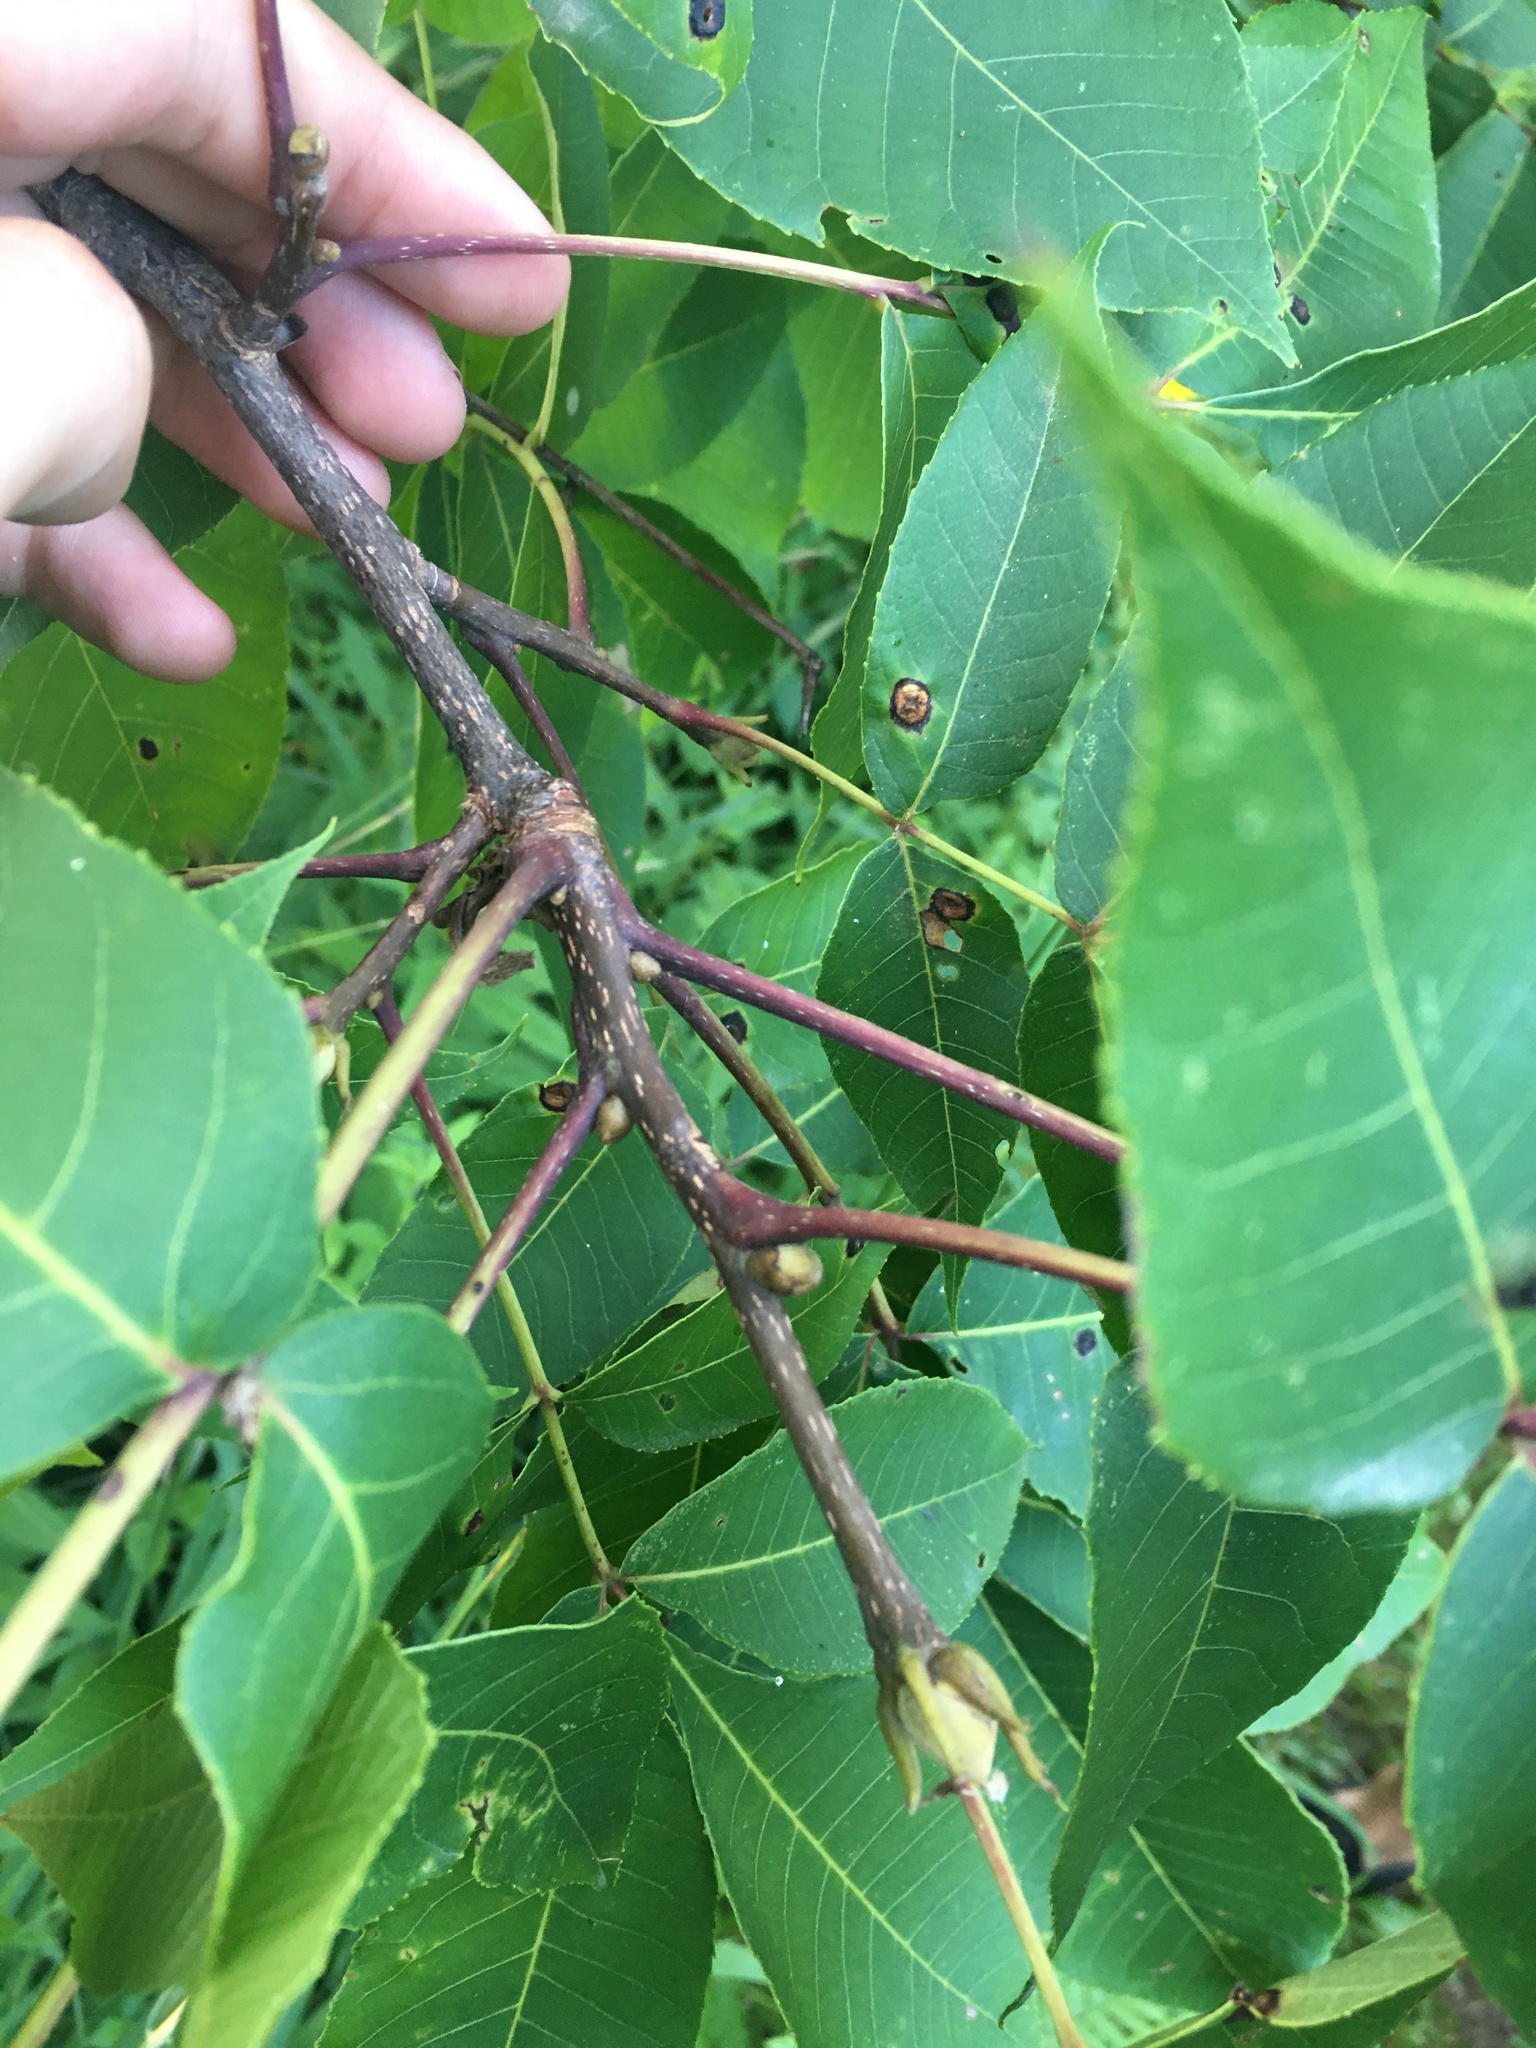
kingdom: Plantae
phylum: Tracheophyta
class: Magnoliopsida
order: Fagales
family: Juglandaceae
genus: Carya
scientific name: Carya glabra
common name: Pignut hickory
